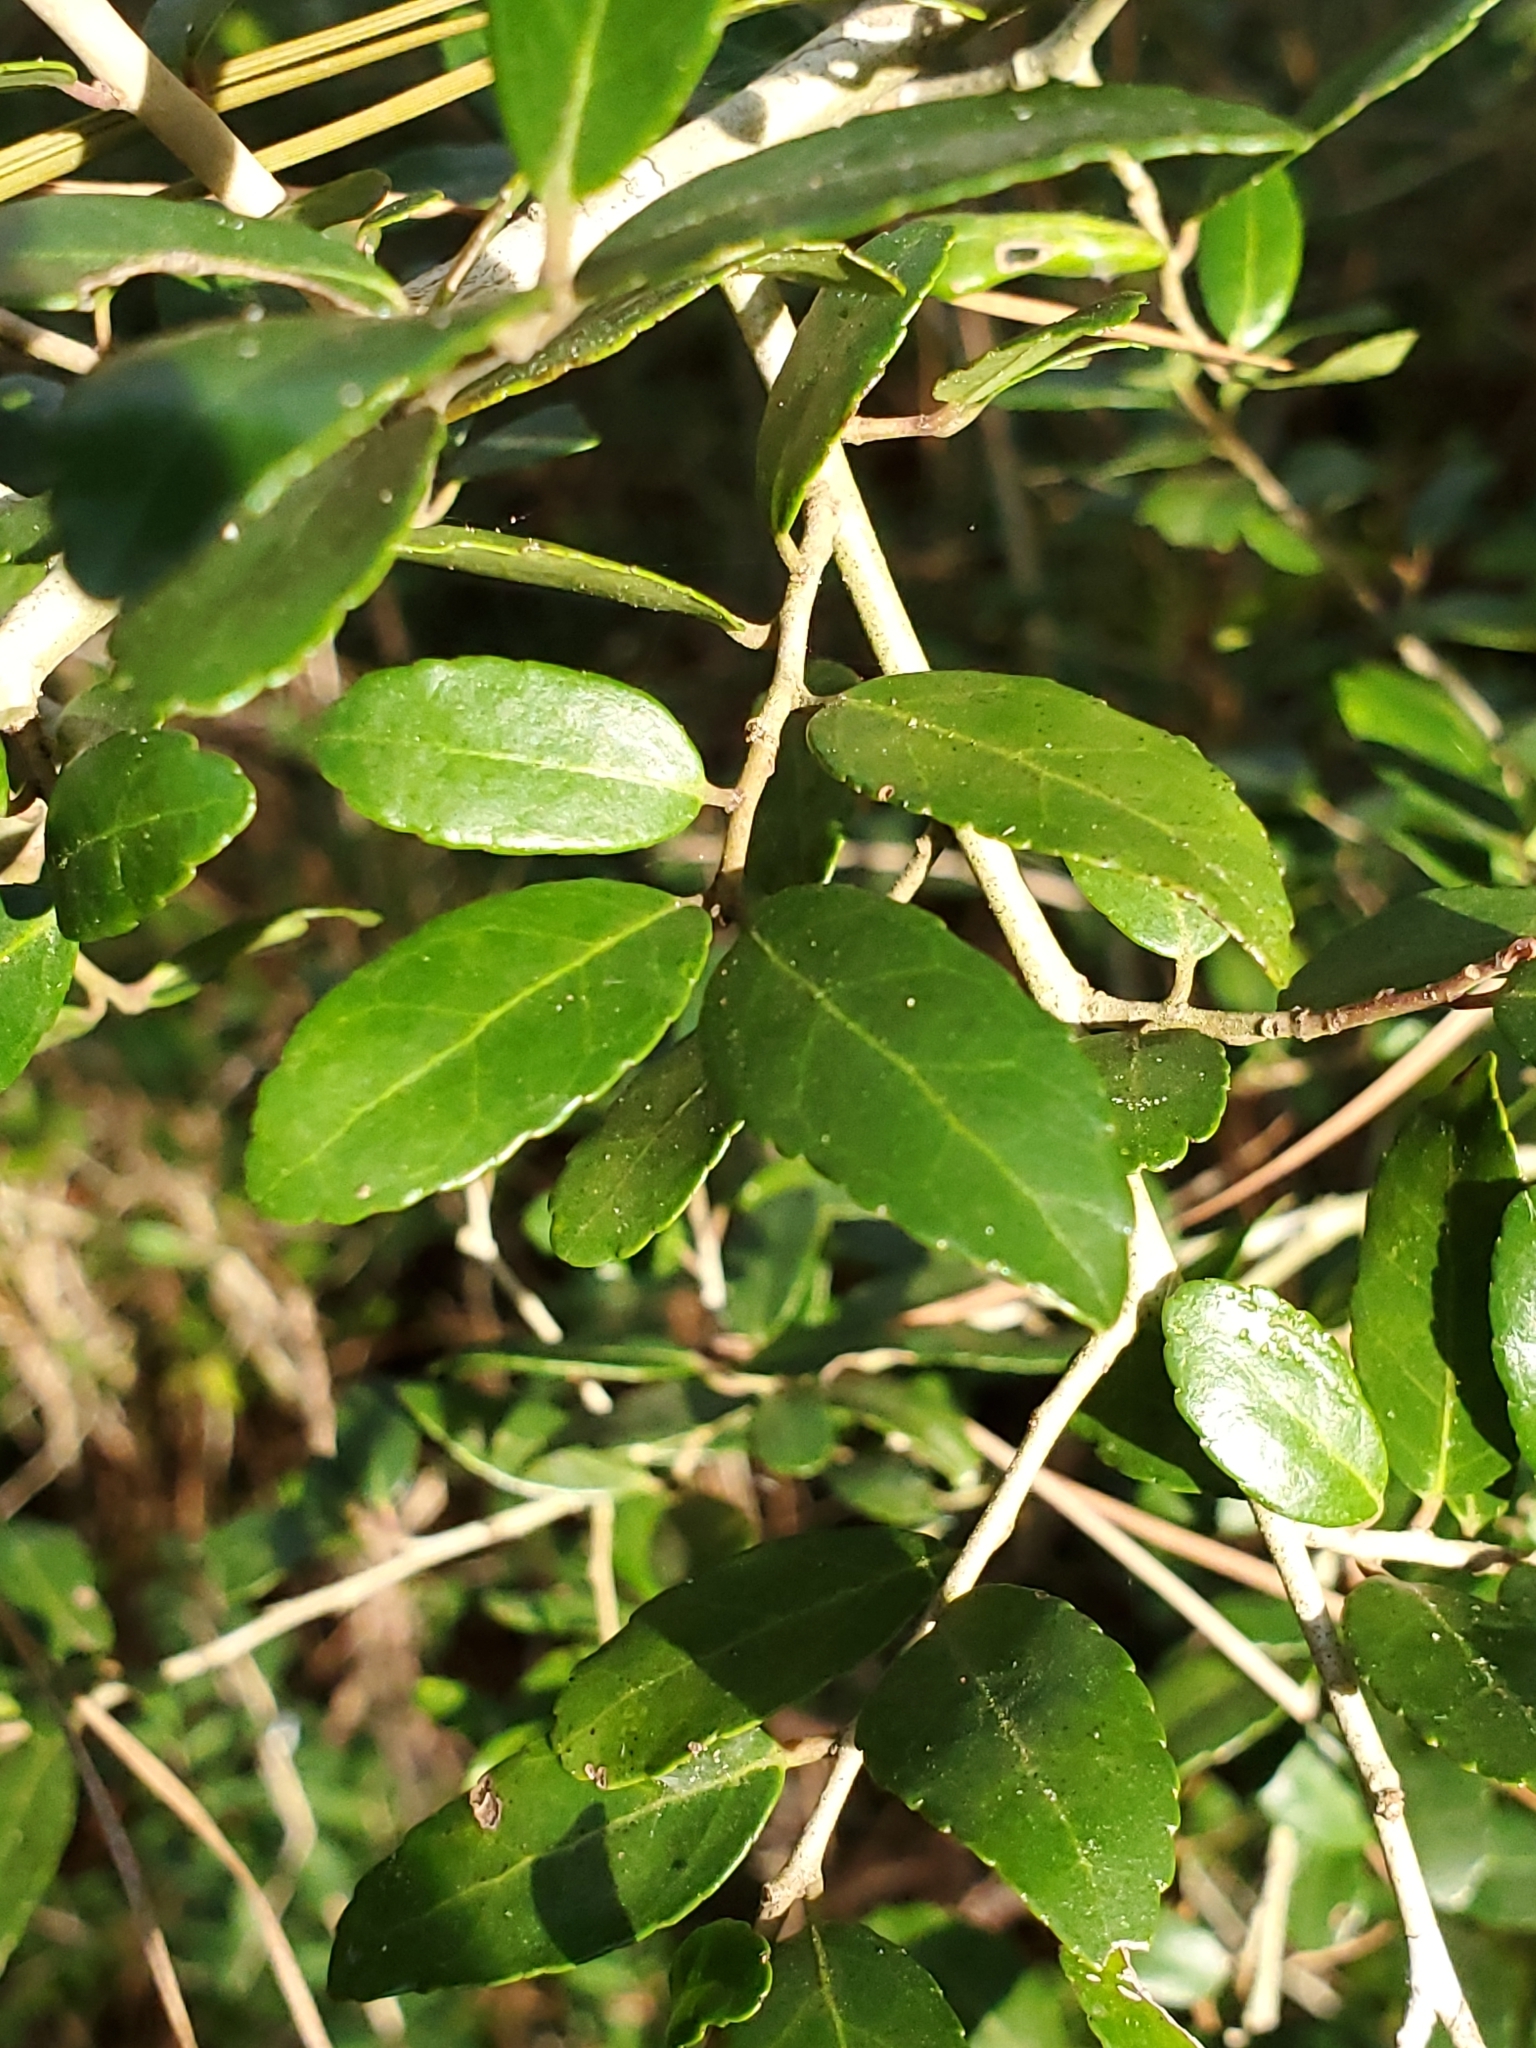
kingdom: Plantae
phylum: Tracheophyta
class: Magnoliopsida
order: Aquifoliales
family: Aquifoliaceae
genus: Ilex
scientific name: Ilex vomitoria
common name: Yaupon holly
